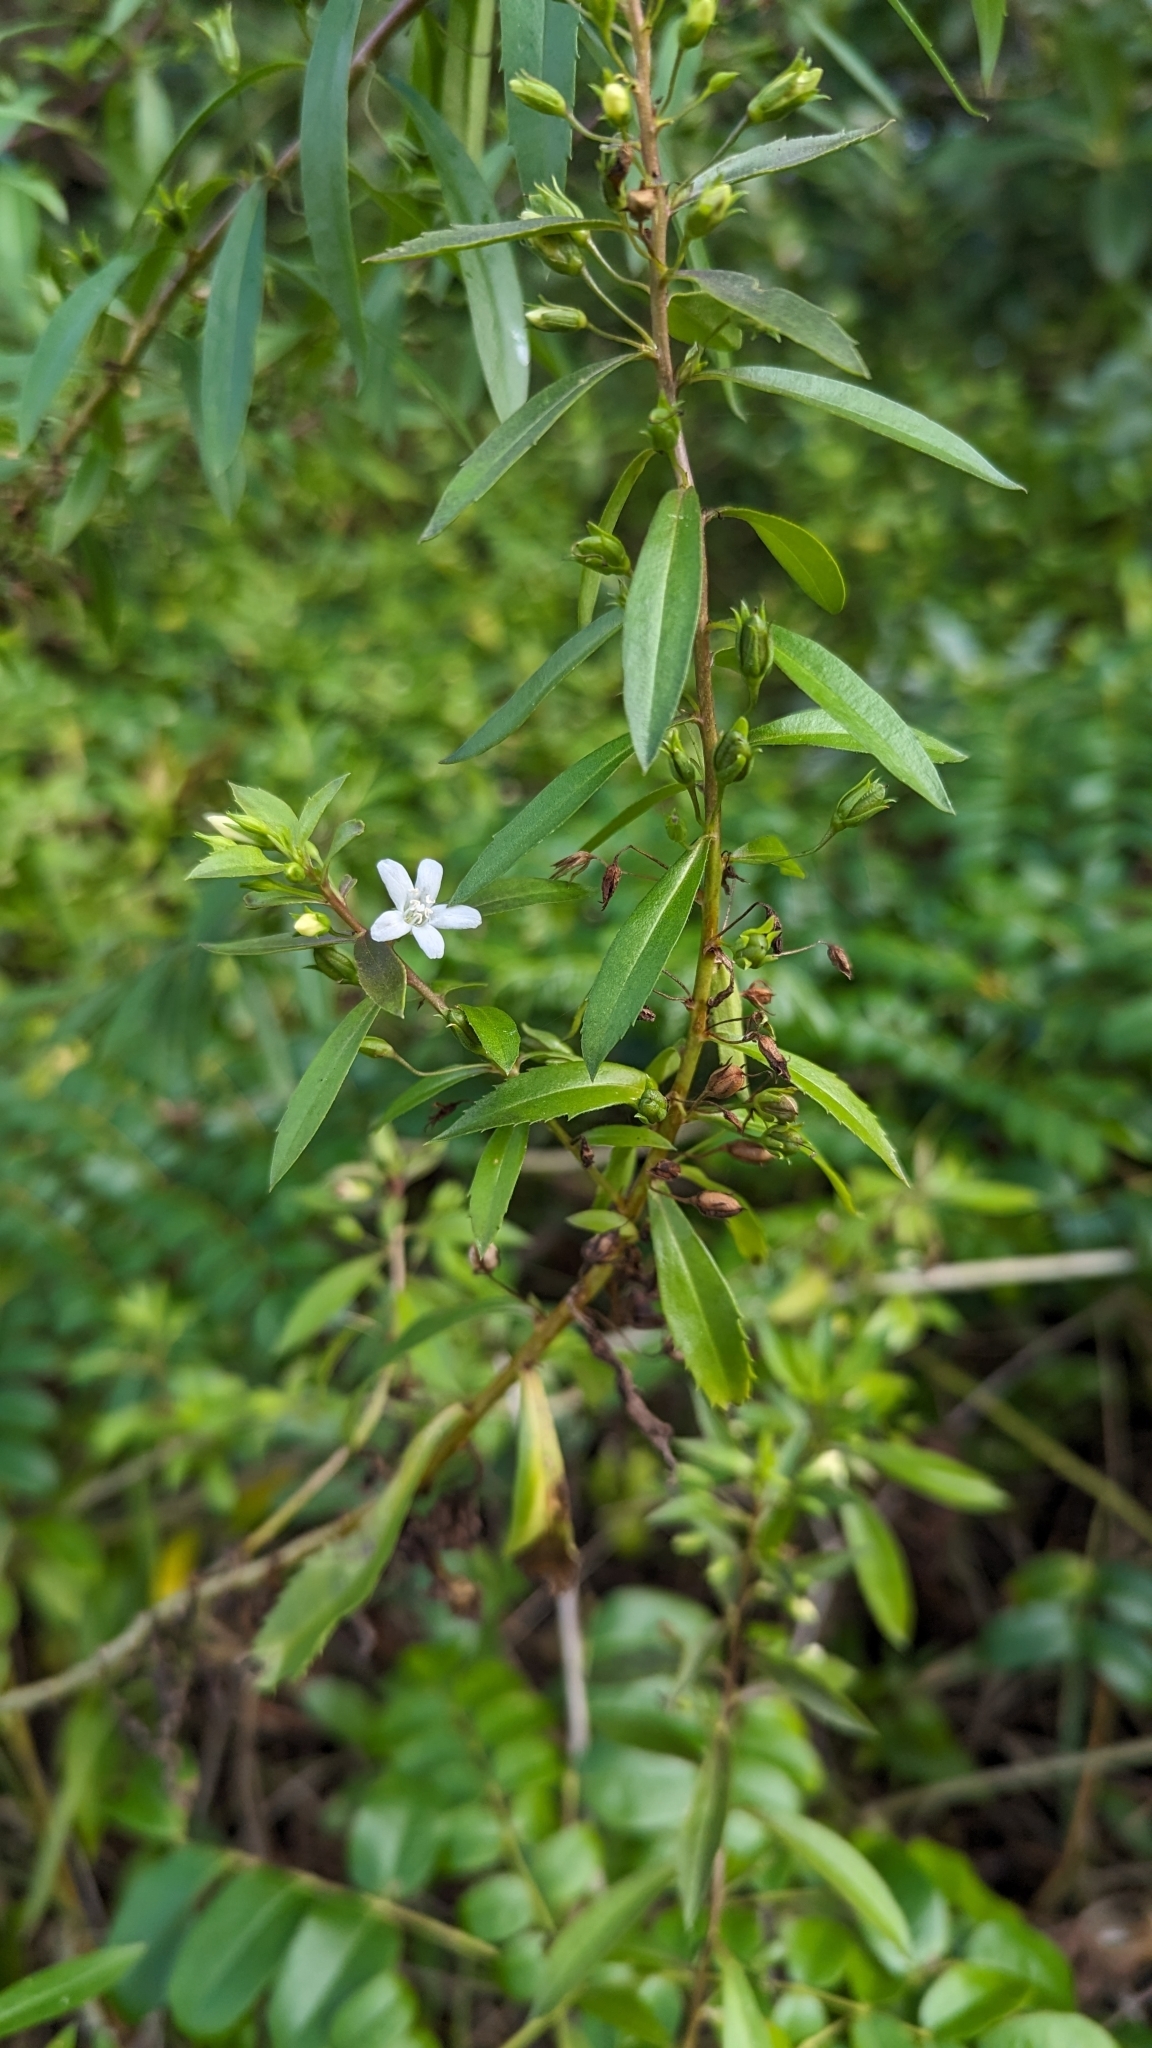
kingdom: Plantae
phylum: Tracheophyta
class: Magnoliopsida
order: Lamiales
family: Scrophulariaceae
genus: Capraria
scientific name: Capraria biflora
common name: Goatweed
